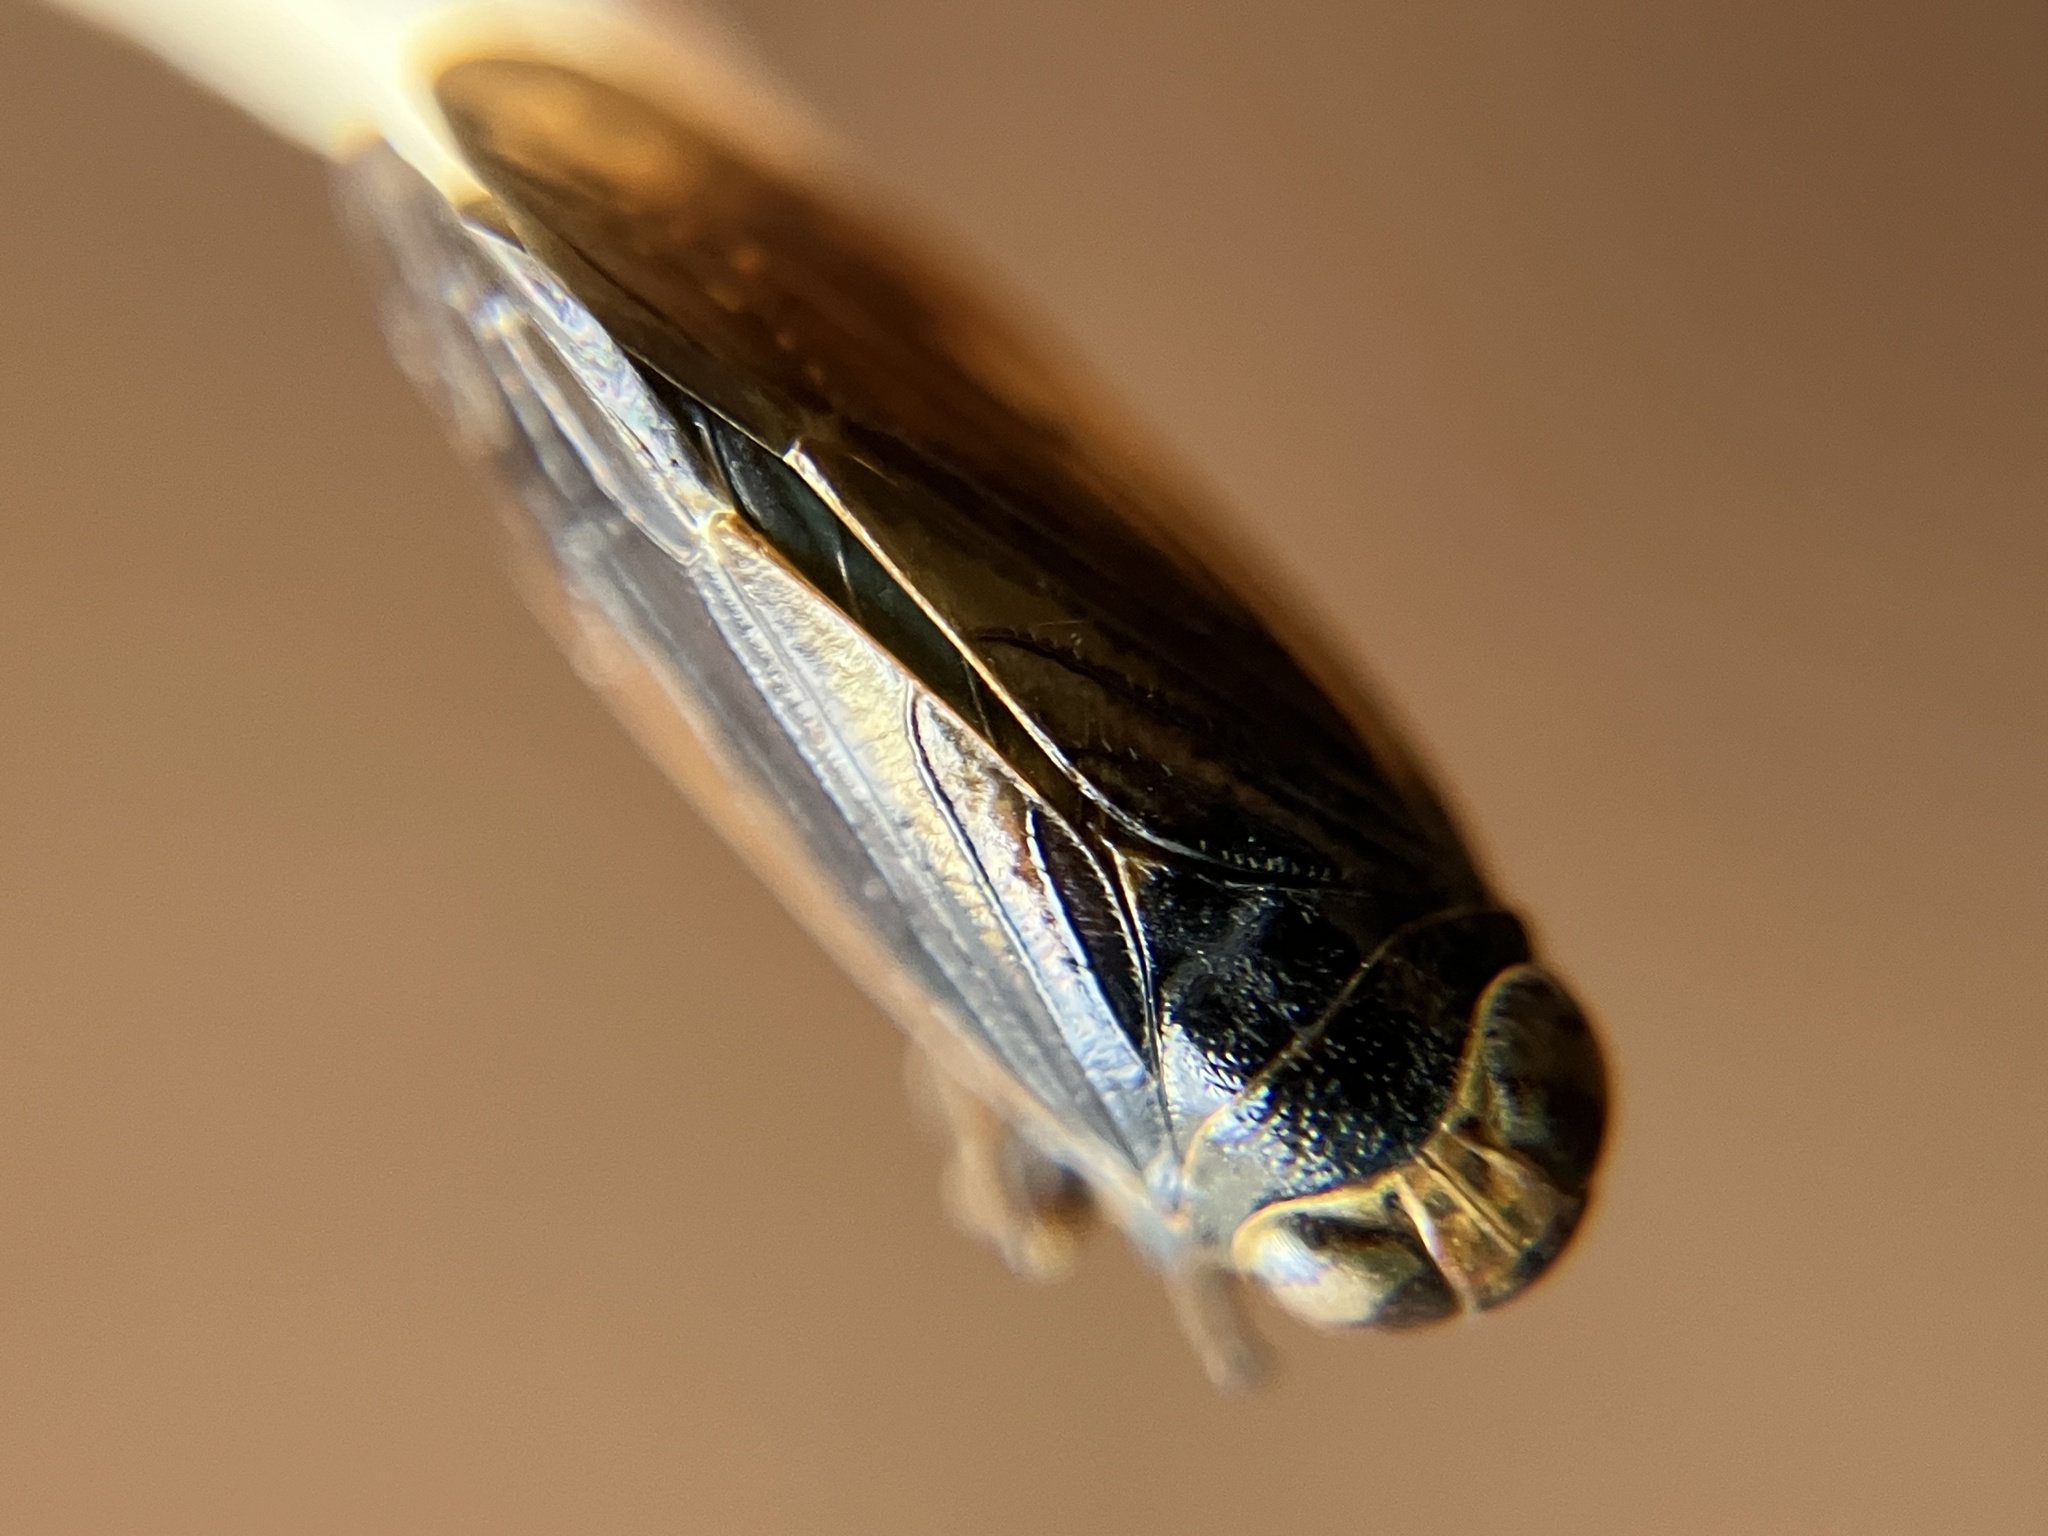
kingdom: Animalia
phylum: Arthropoda
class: Insecta
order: Hemiptera
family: Cicadellidae
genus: Calodia
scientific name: Calodia ostentus
